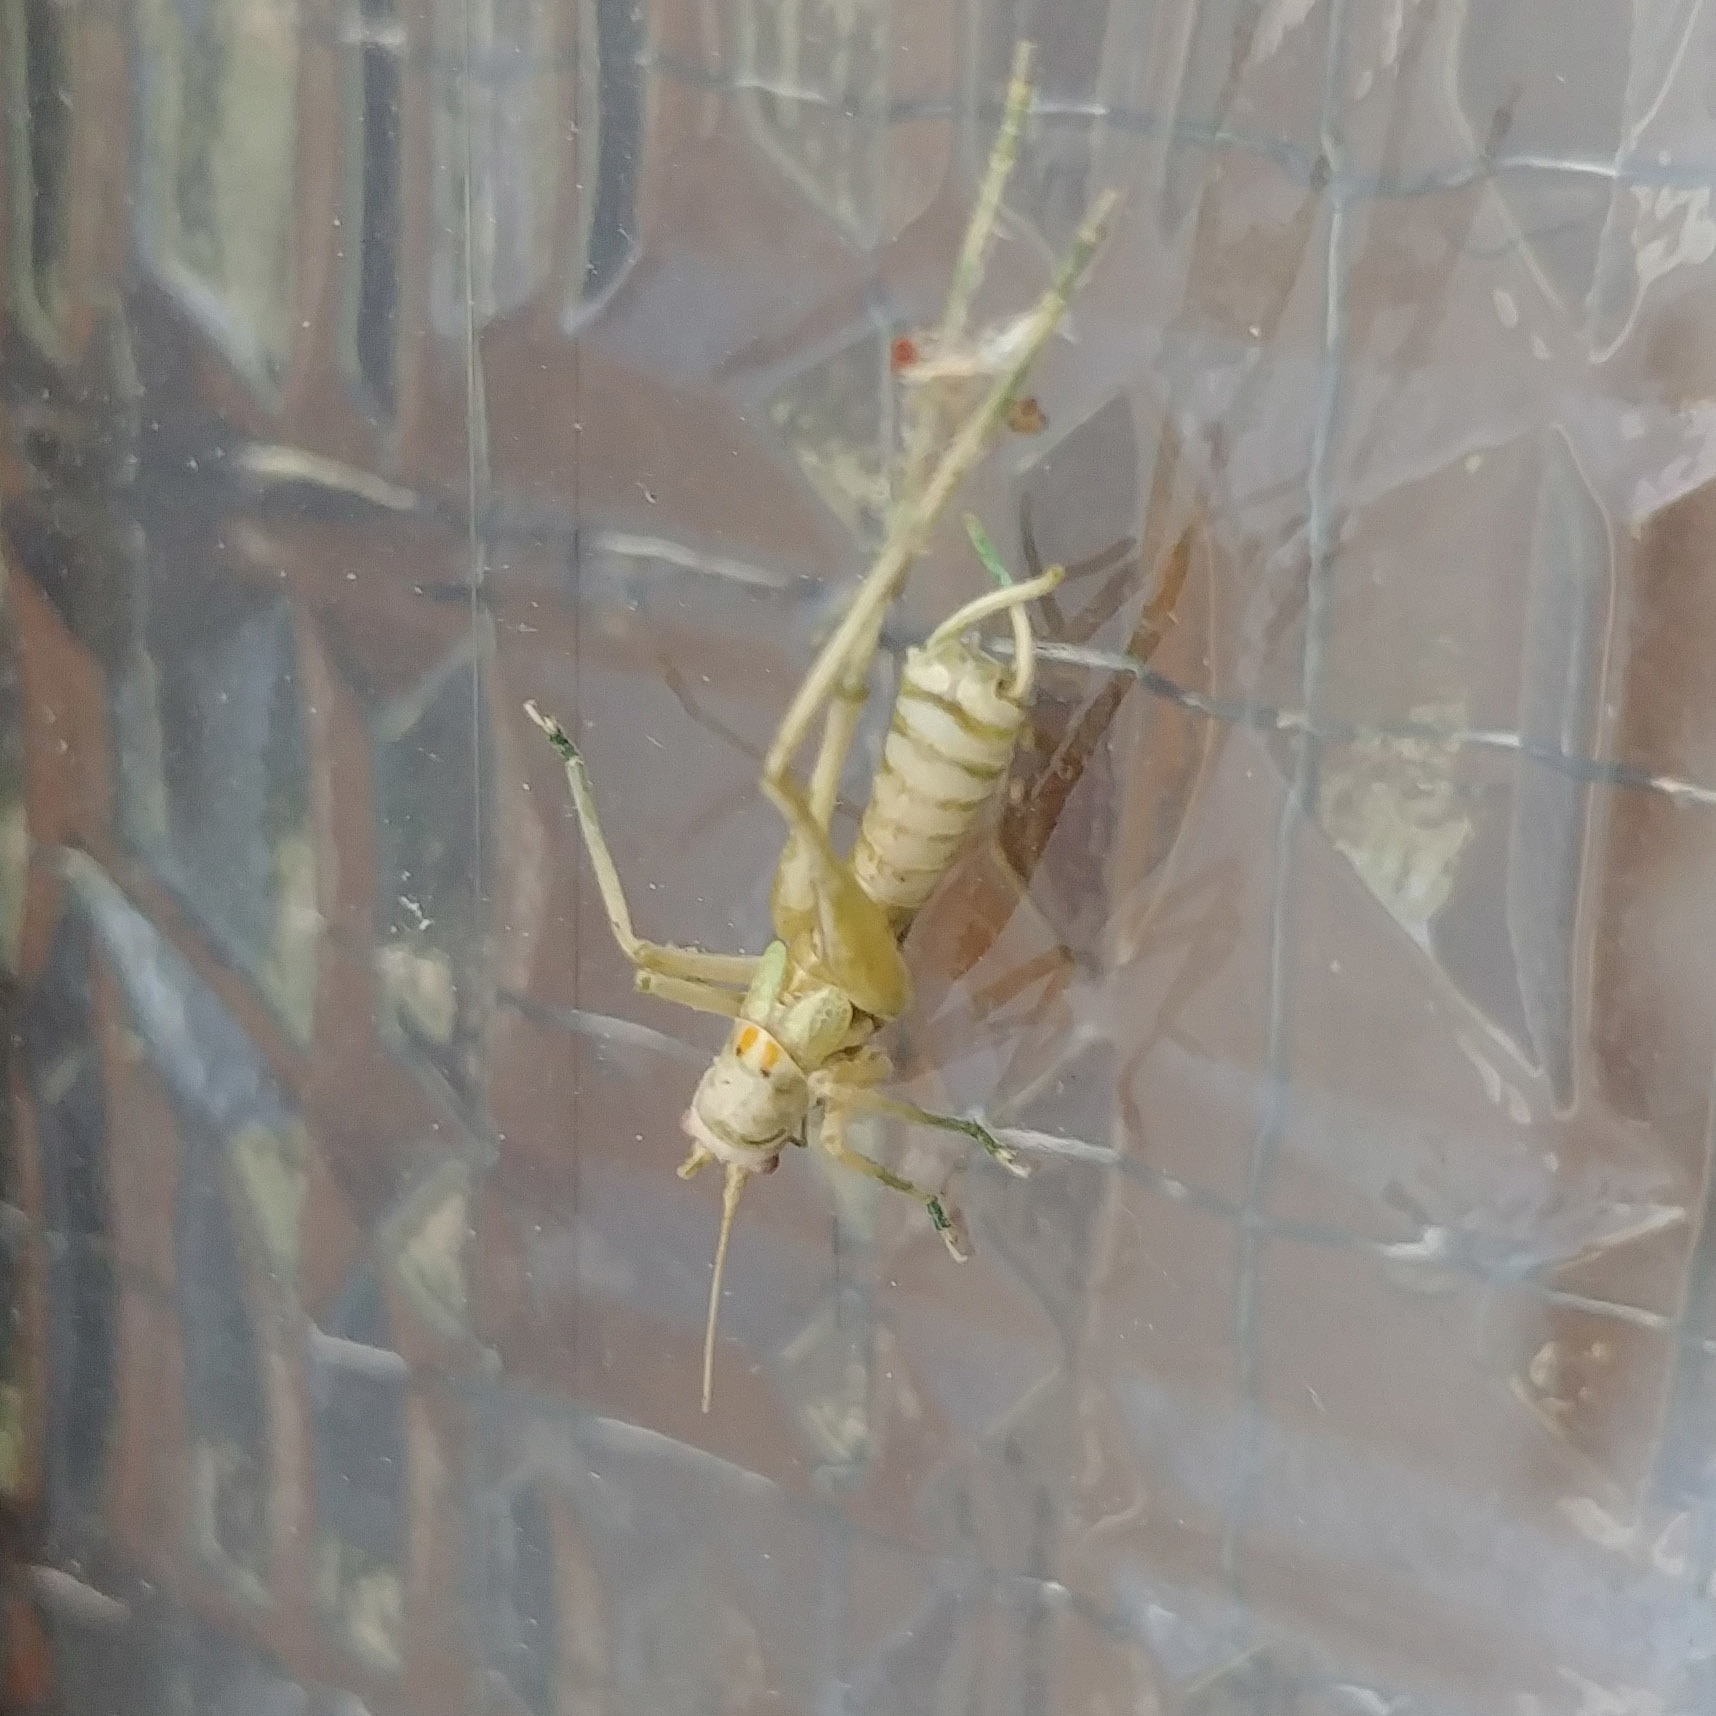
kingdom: Animalia
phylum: Arthropoda
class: Insecta
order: Orthoptera
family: Tettigoniidae
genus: Meconema
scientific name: Meconema meridionale
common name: Southern oak bush-cricket
